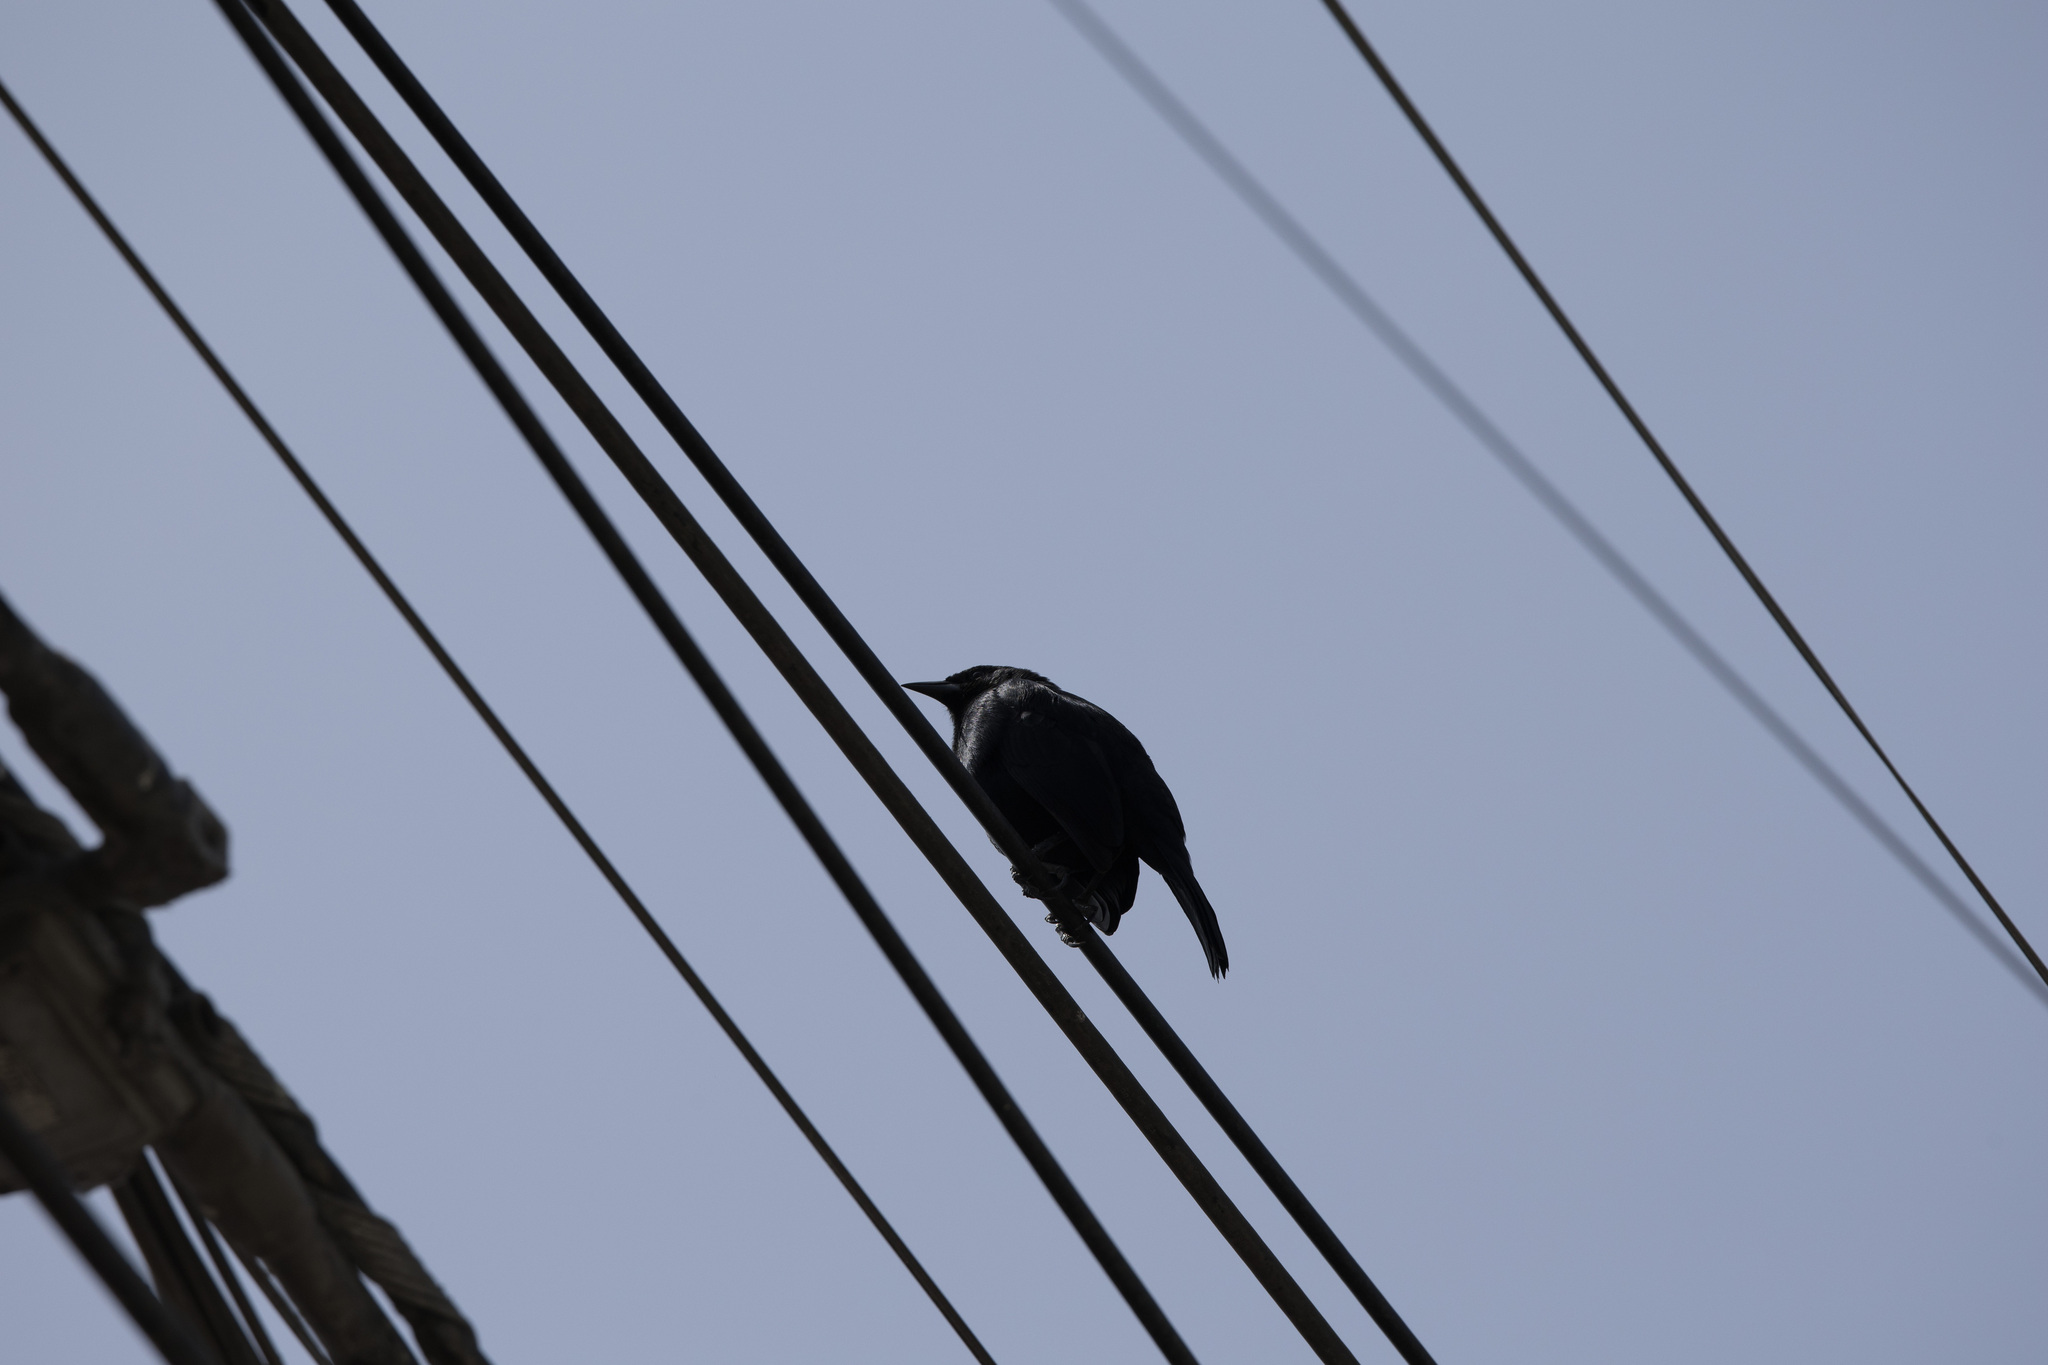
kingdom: Animalia
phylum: Chordata
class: Aves
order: Passeriformes
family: Icteridae
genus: Dives
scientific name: Dives warczewiczi
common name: Scrub blackbird
